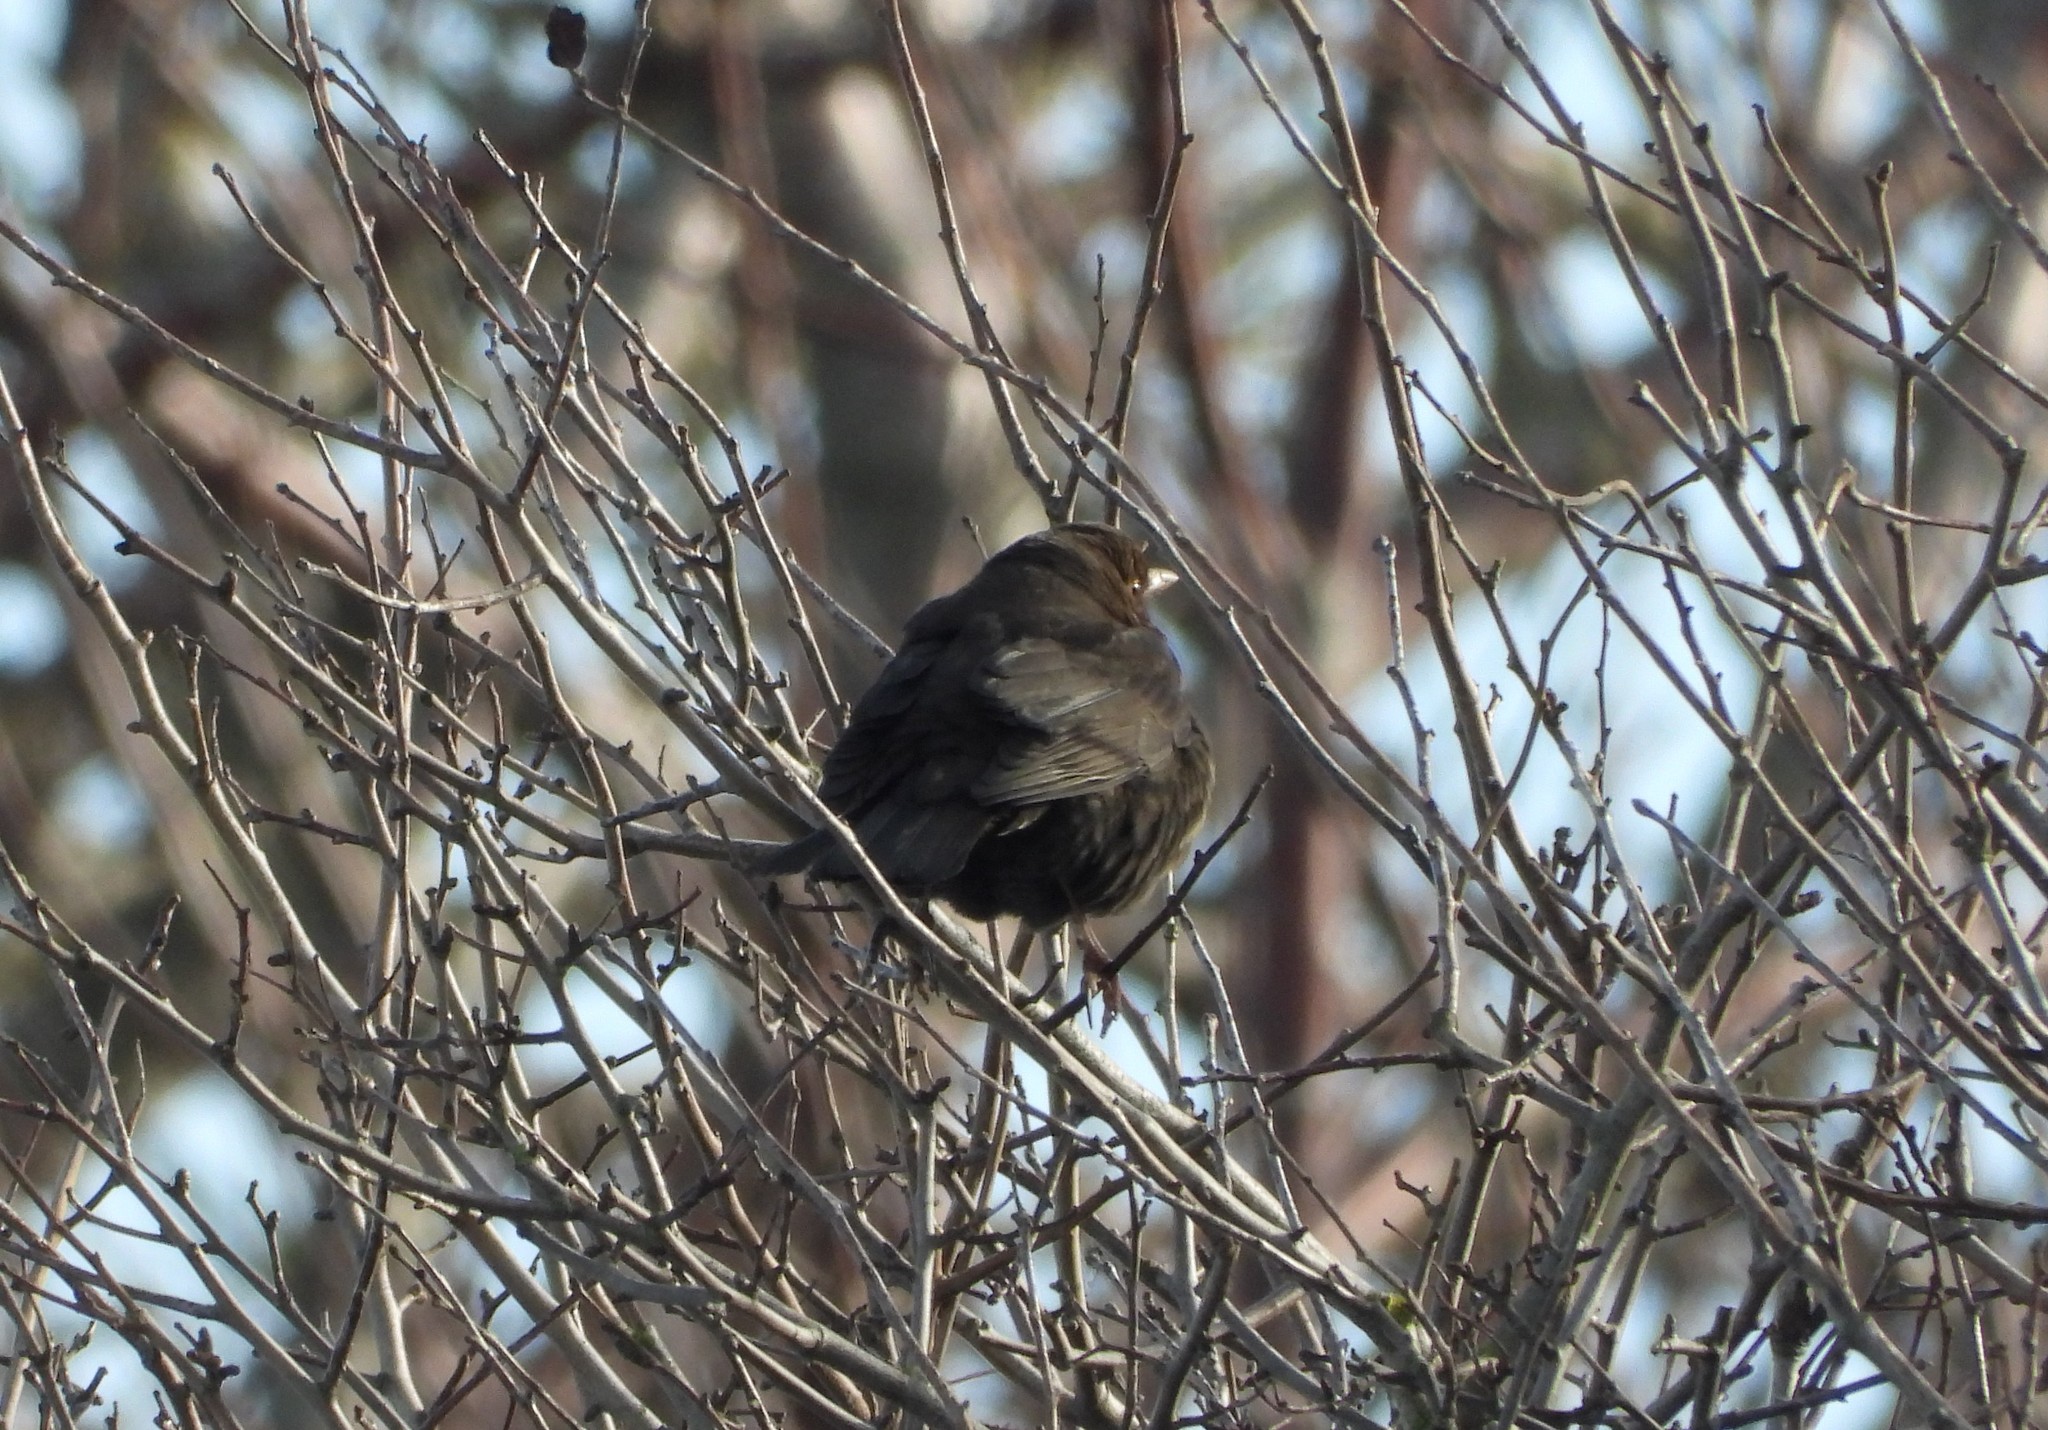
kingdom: Animalia
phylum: Chordata
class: Aves
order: Passeriformes
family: Turdidae
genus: Turdus
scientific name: Turdus merula
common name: Common blackbird
